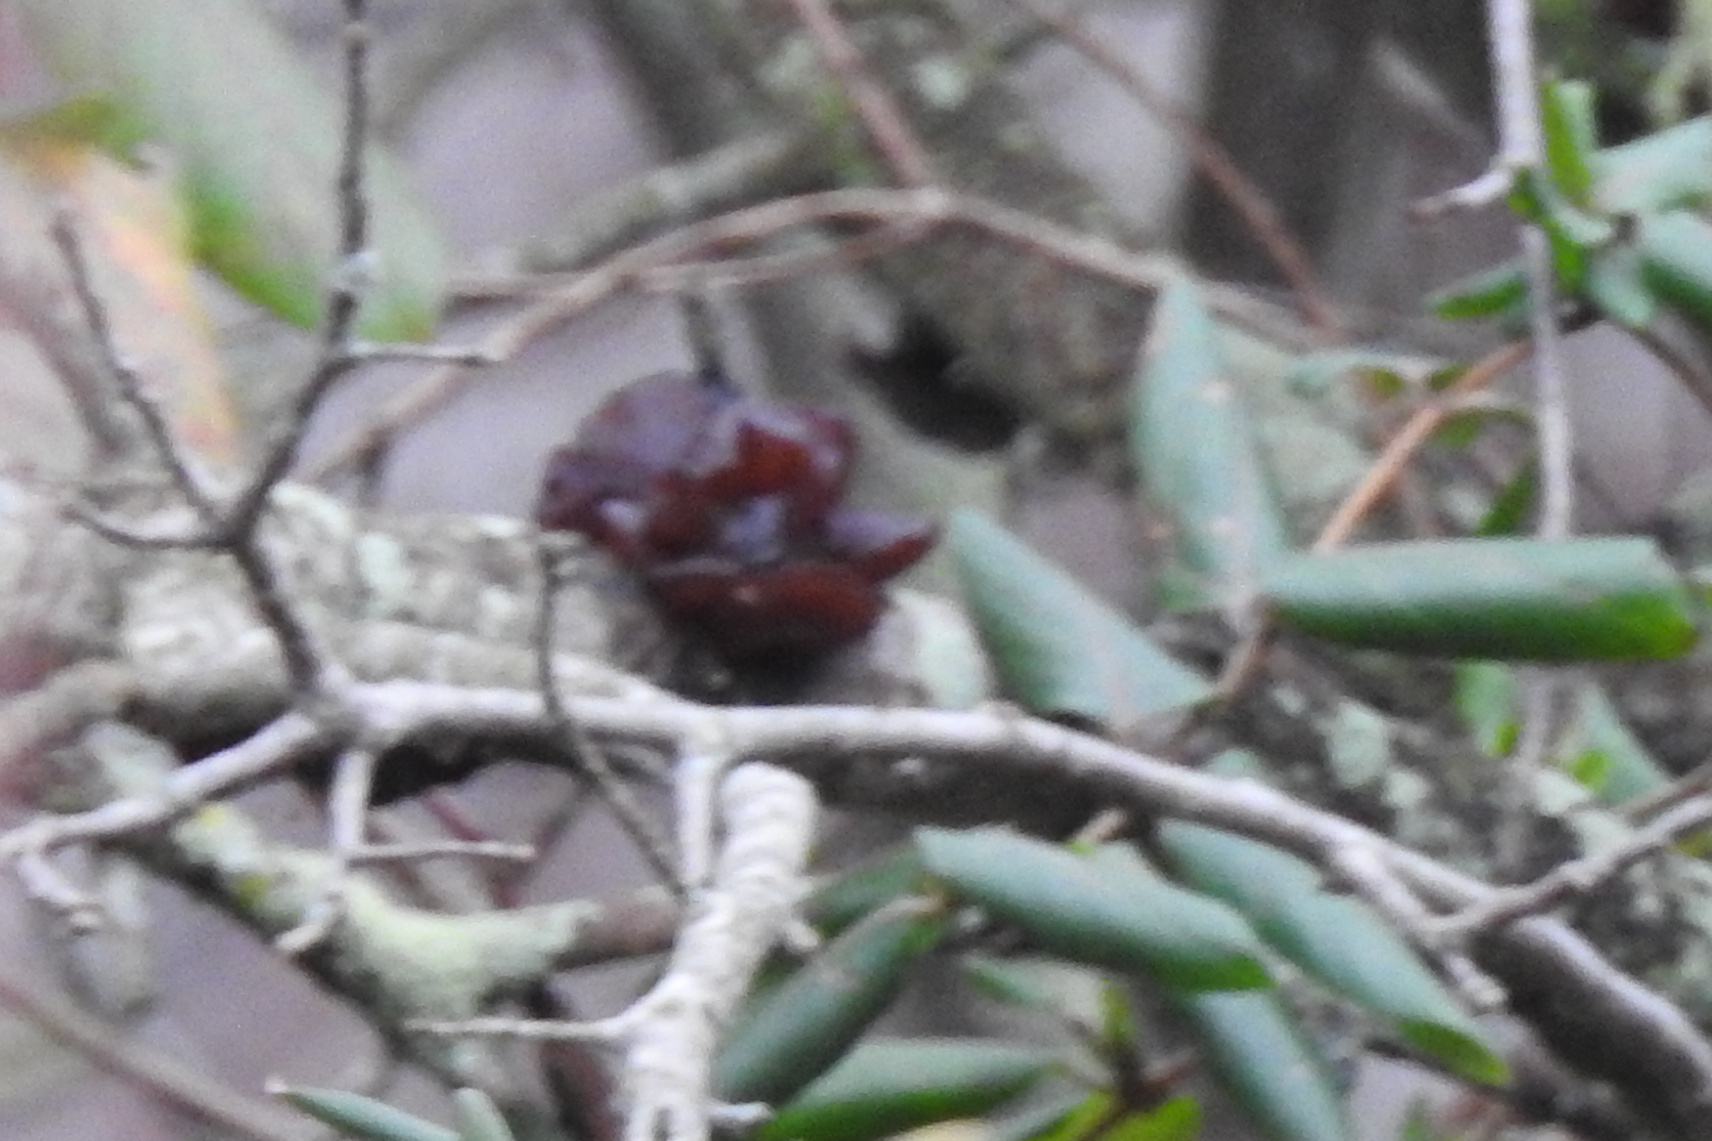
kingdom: Fungi
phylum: Basidiomycota
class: Agaricomycetes
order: Auriculariales
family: Auriculariaceae
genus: Exidia
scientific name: Exidia
